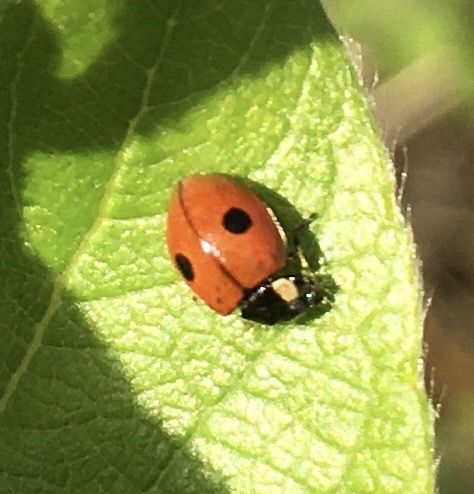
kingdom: Animalia
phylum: Arthropoda
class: Insecta
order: Coleoptera
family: Coccinellidae
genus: Adalia
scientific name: Adalia bipunctata
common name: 2-spot ladybird
